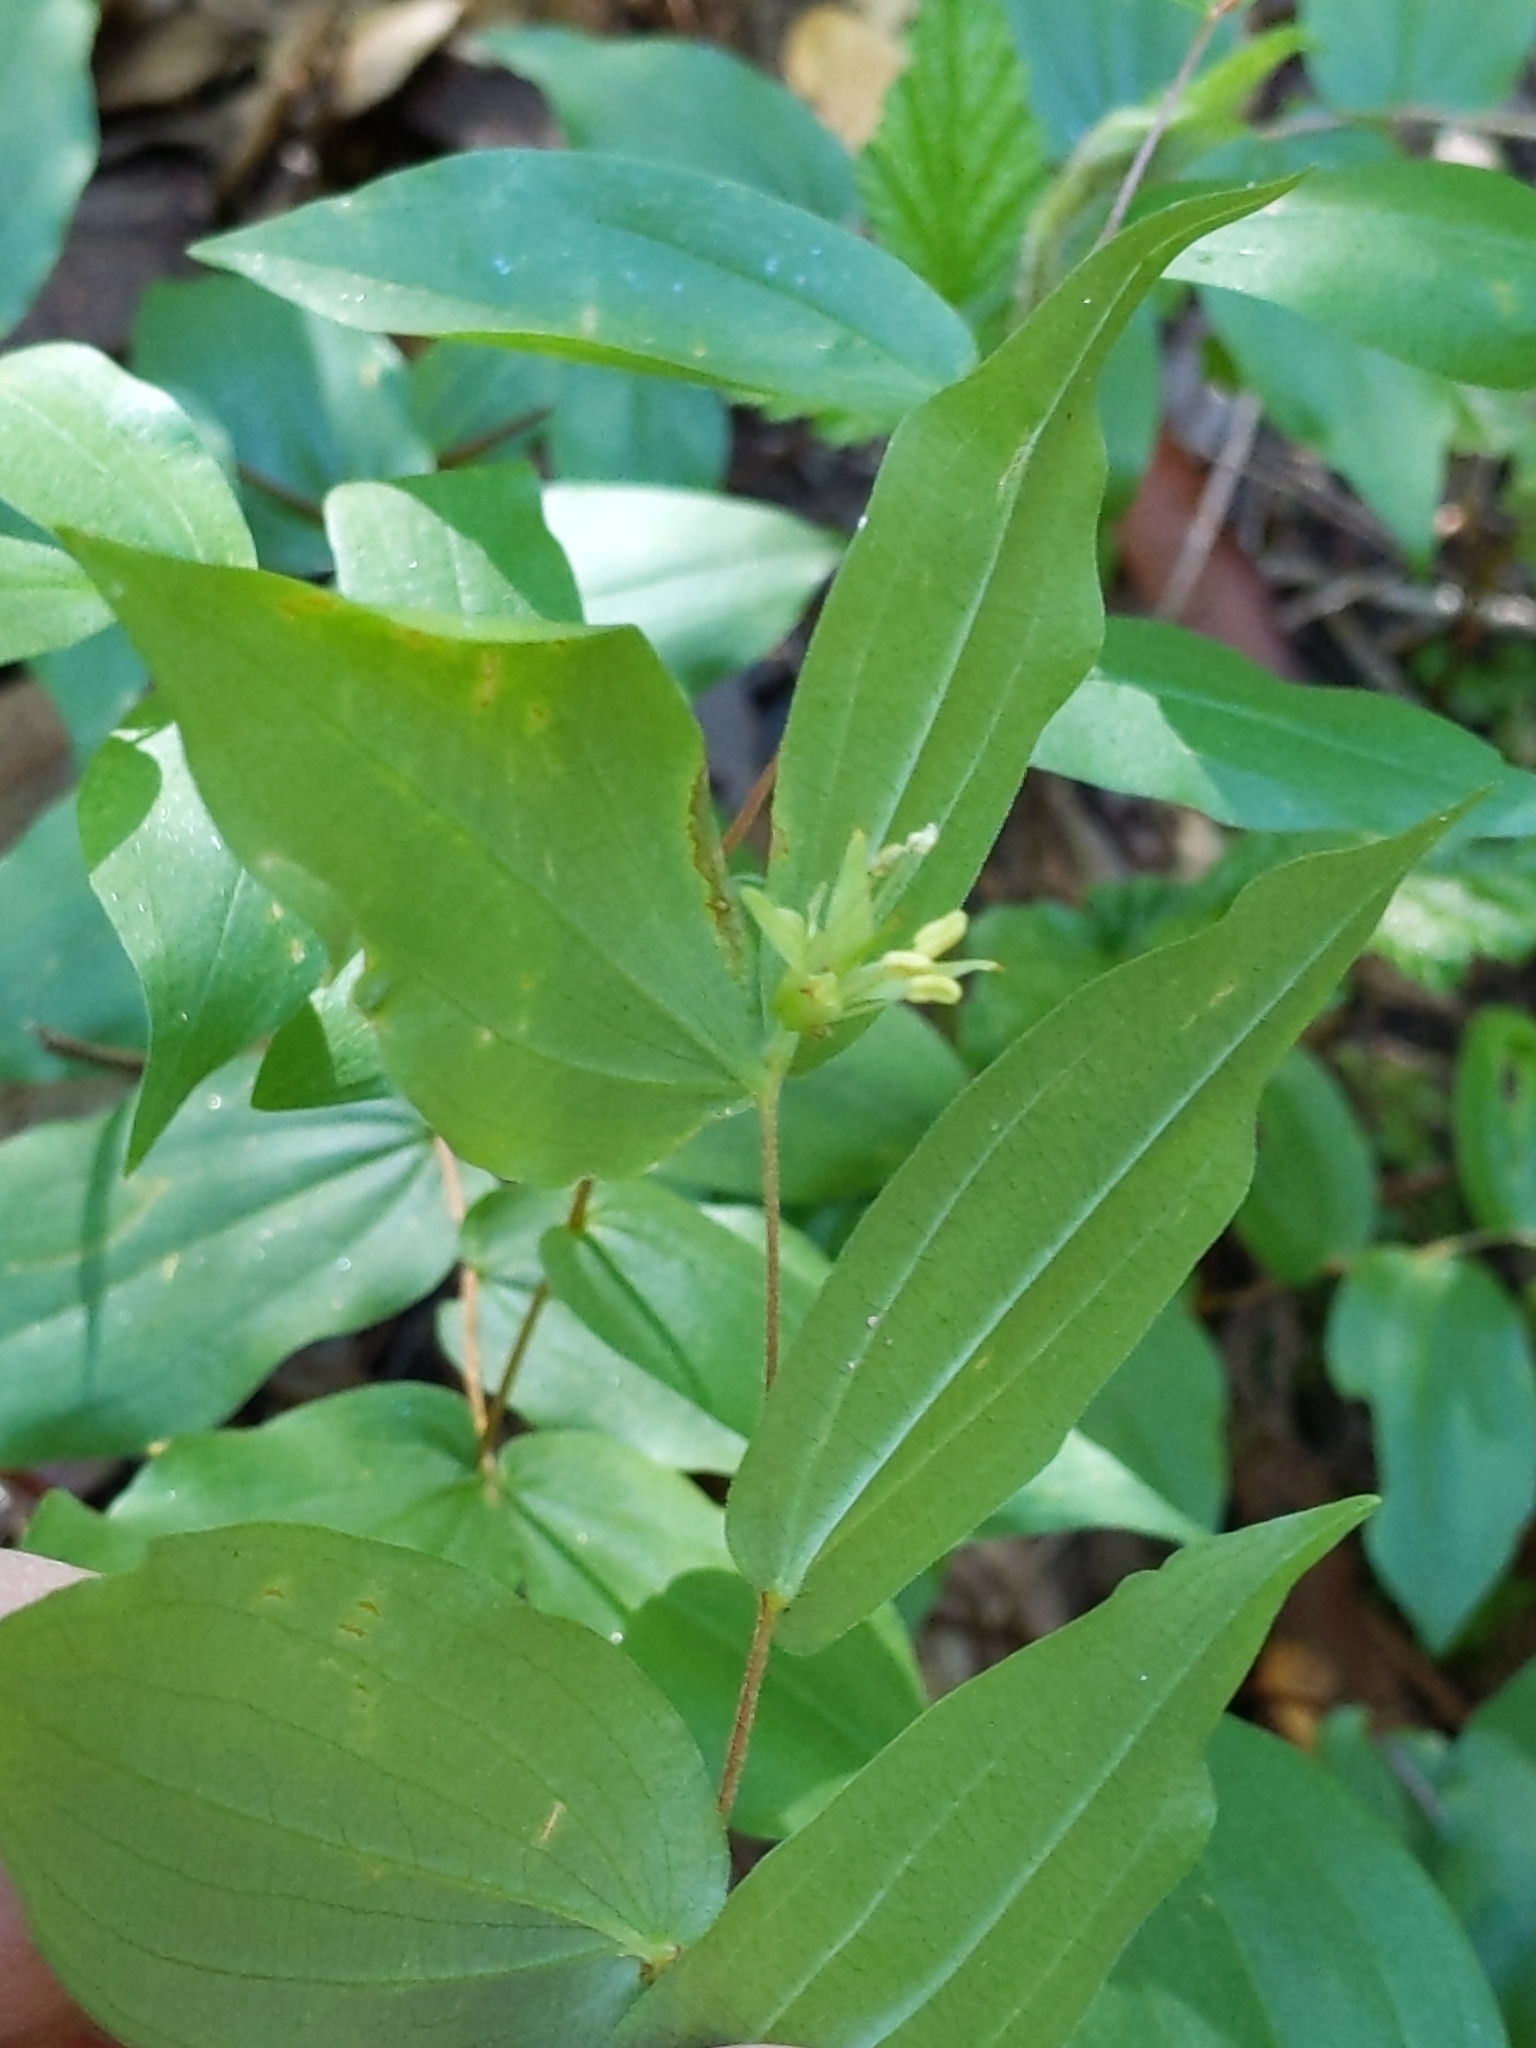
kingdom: Plantae
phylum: Tracheophyta
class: Liliopsida
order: Liliales
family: Liliaceae
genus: Prosartes
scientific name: Prosartes hookeri
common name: Fairy-bells
